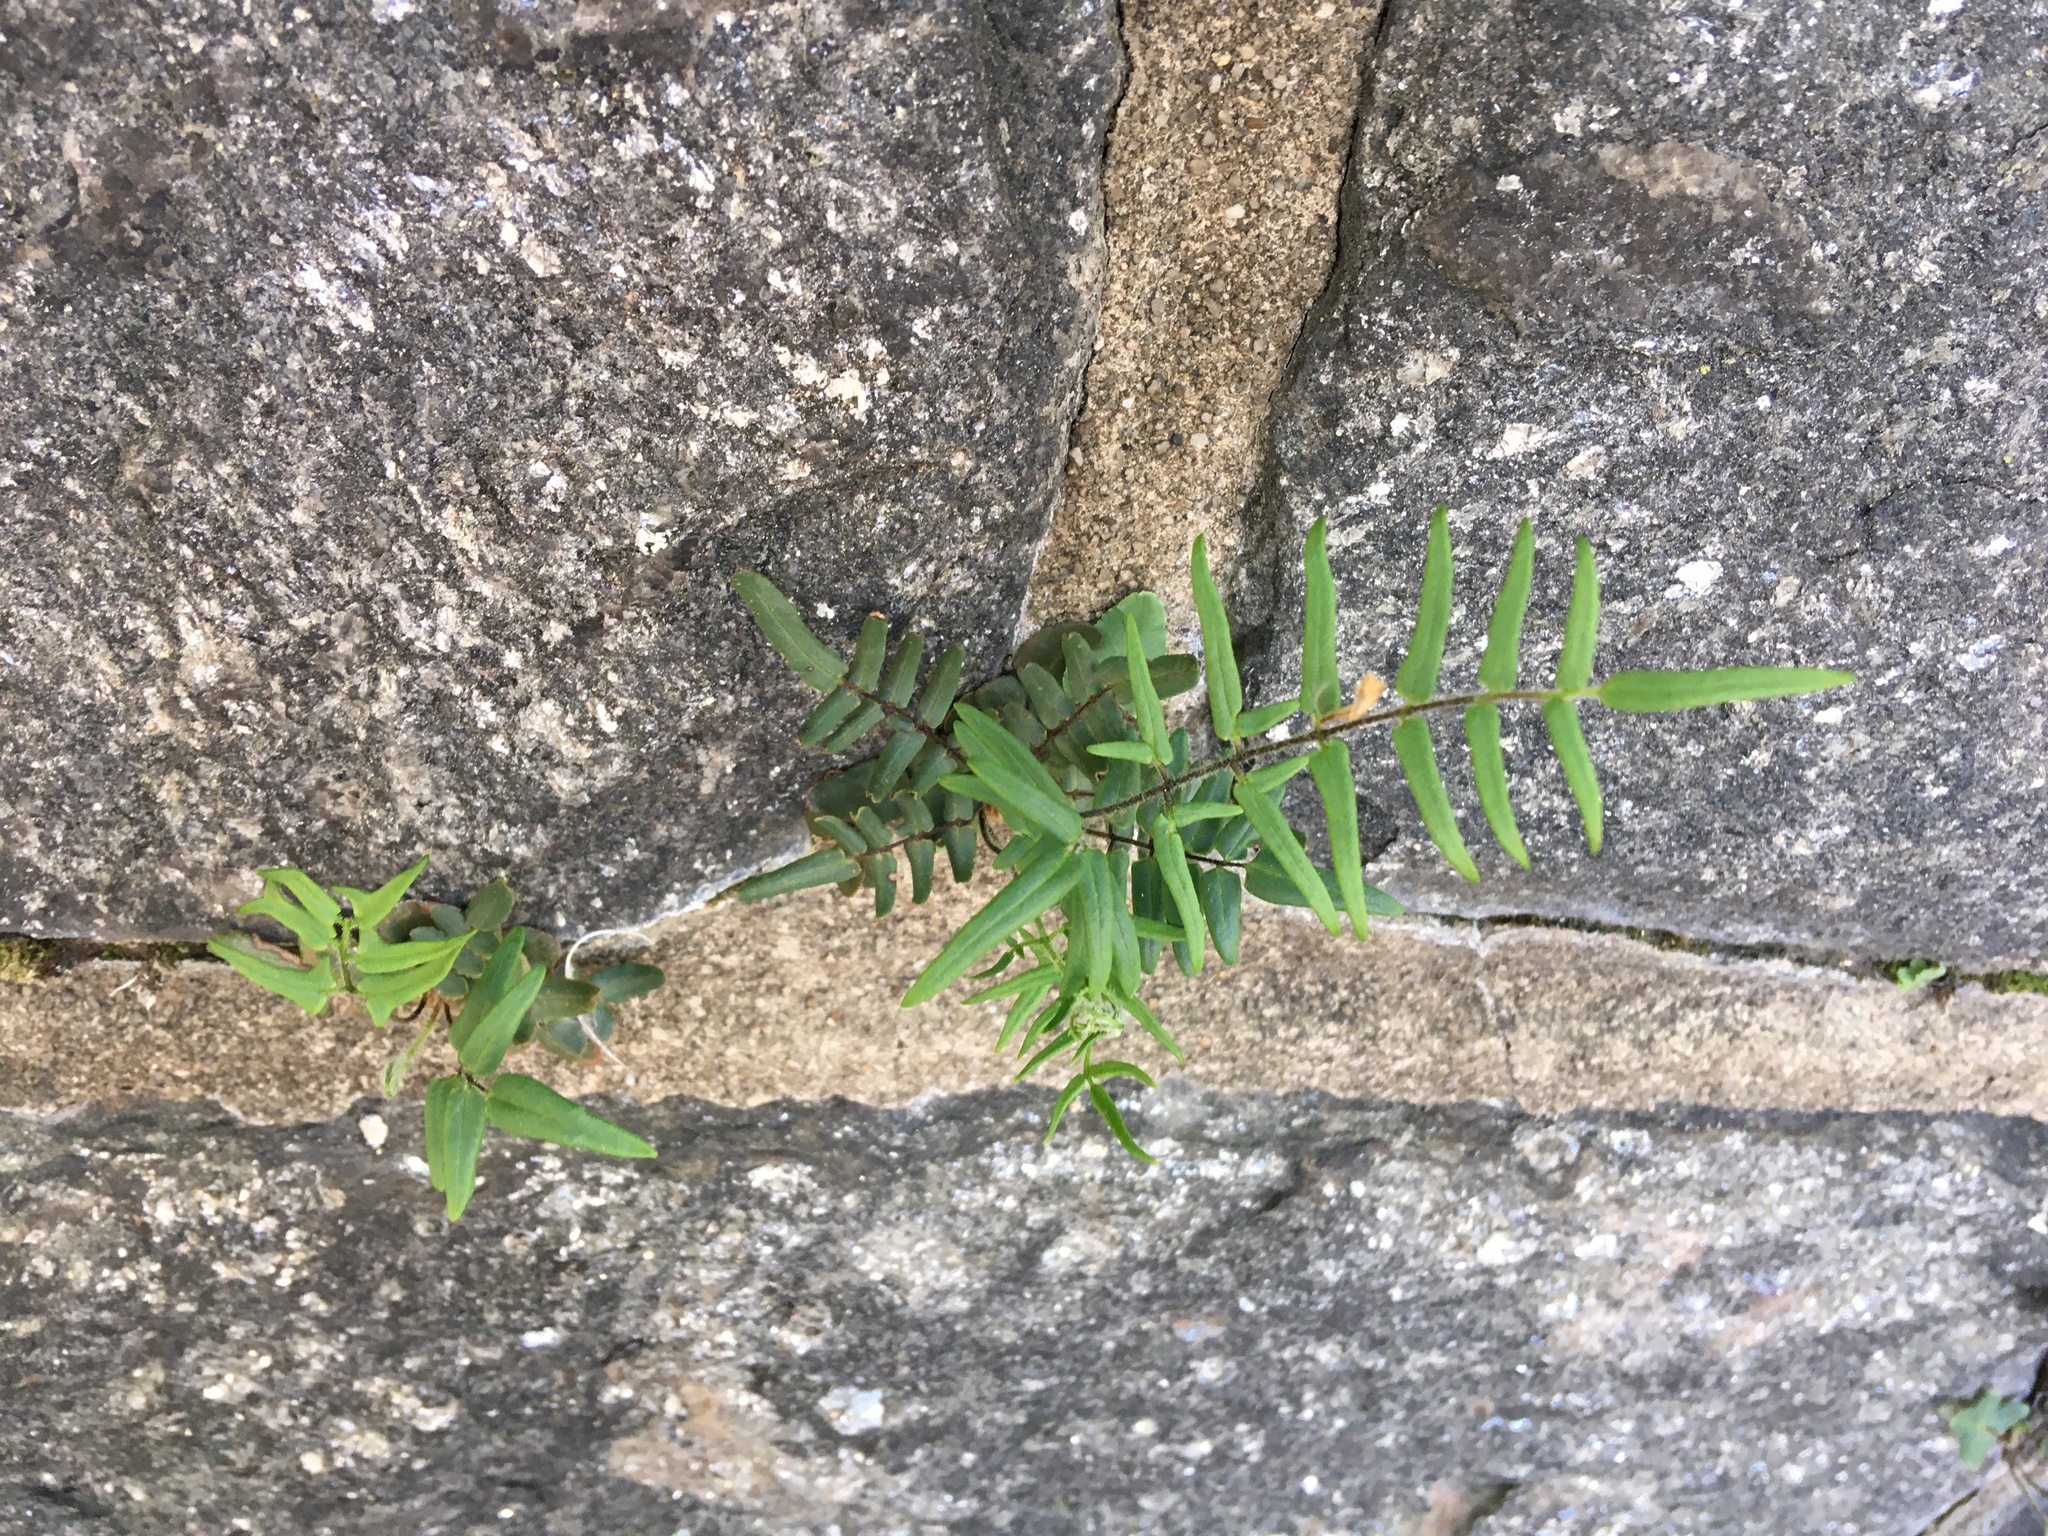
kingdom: Plantae
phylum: Tracheophyta
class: Polypodiopsida
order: Polypodiales
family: Pteridaceae
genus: Pellaea
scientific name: Pellaea atropurpurea
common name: Hairy cliffbrake
